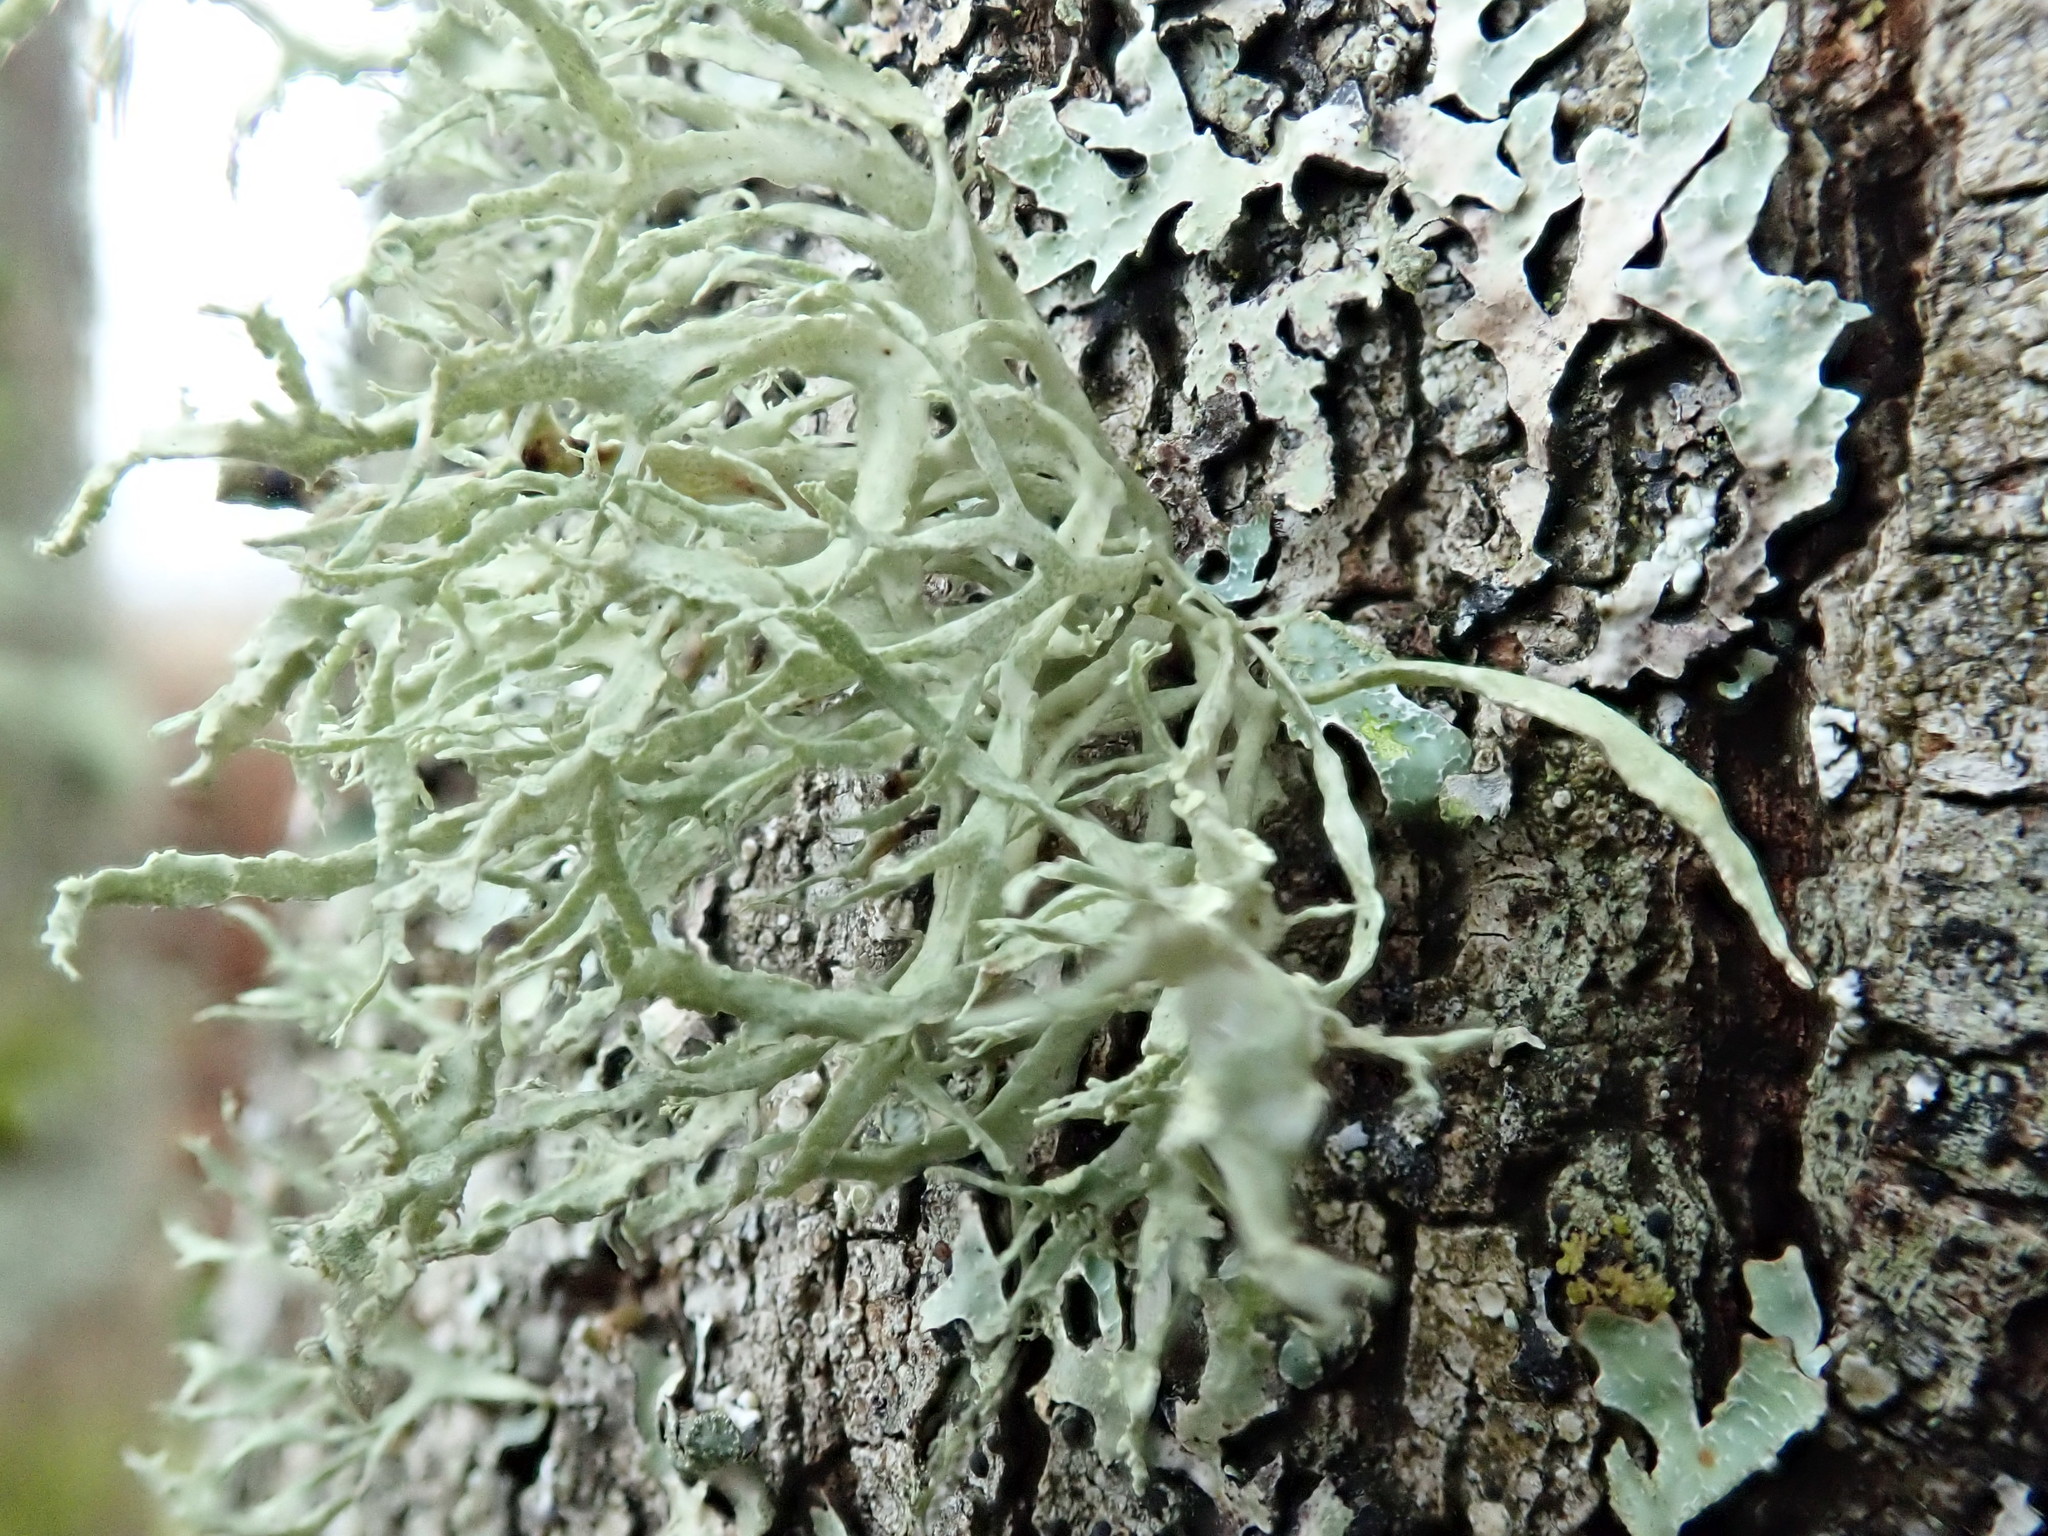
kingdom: Fungi
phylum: Ascomycota
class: Lecanoromycetes
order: Lecanorales
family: Ramalinaceae
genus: Ramalina
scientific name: Ramalina farinacea
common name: Farinose cartilage lichen
